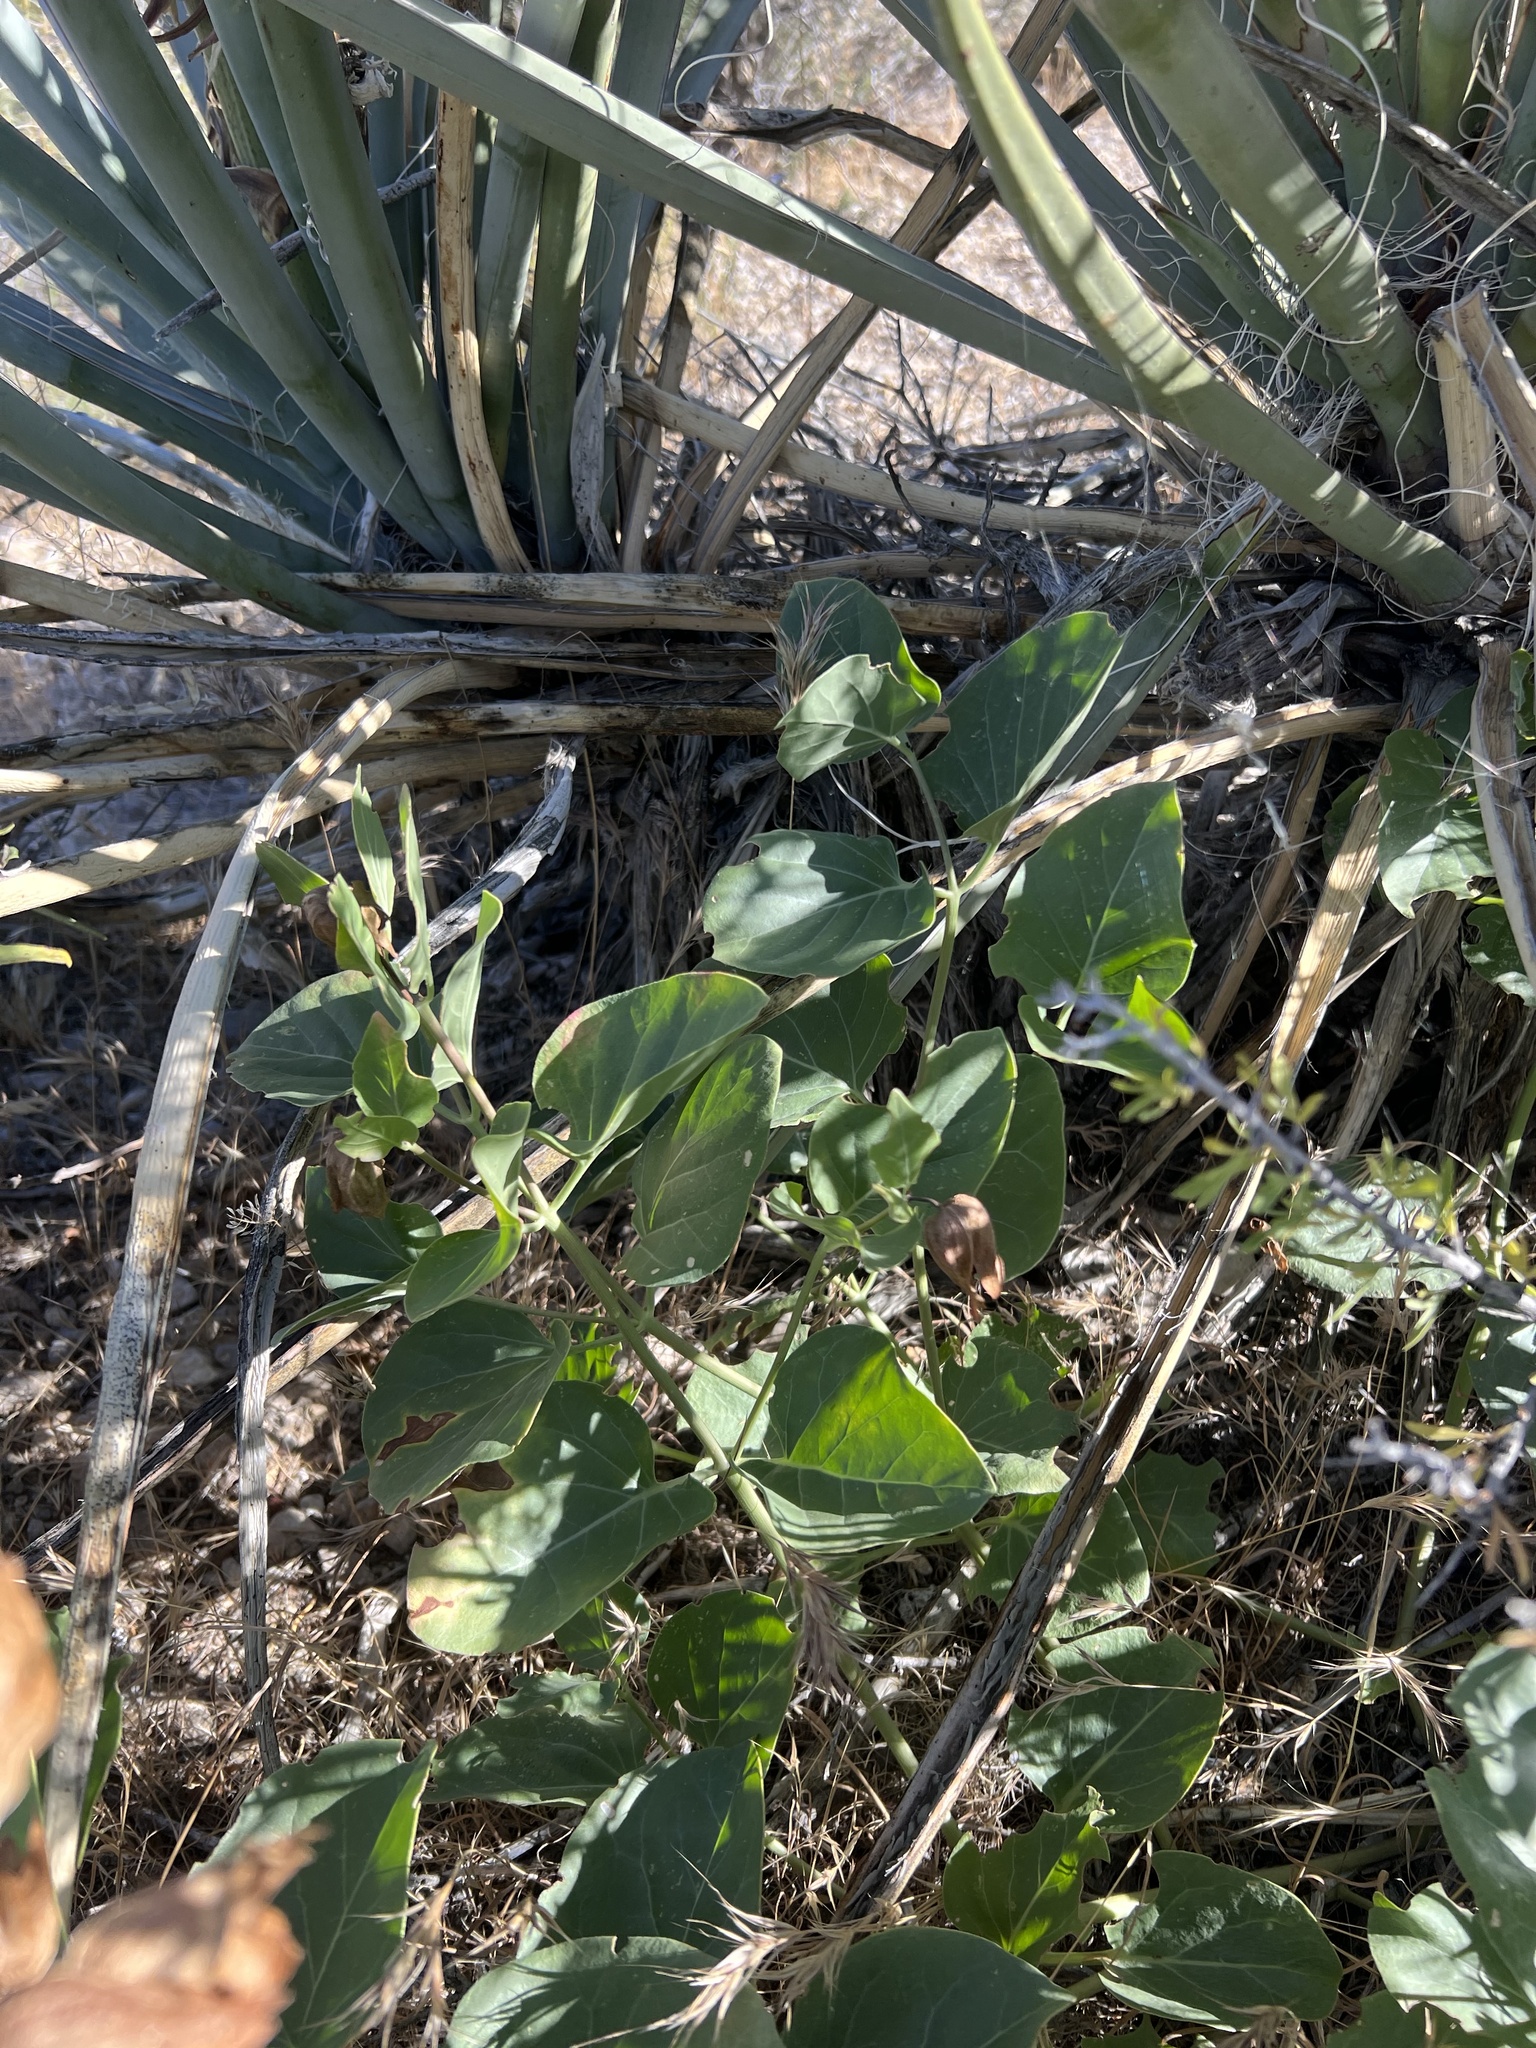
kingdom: Plantae
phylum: Tracheophyta
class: Magnoliopsida
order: Caryophyllales
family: Nyctaginaceae
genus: Mirabilis
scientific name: Mirabilis multiflora
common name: Froebel's four-o'clock
